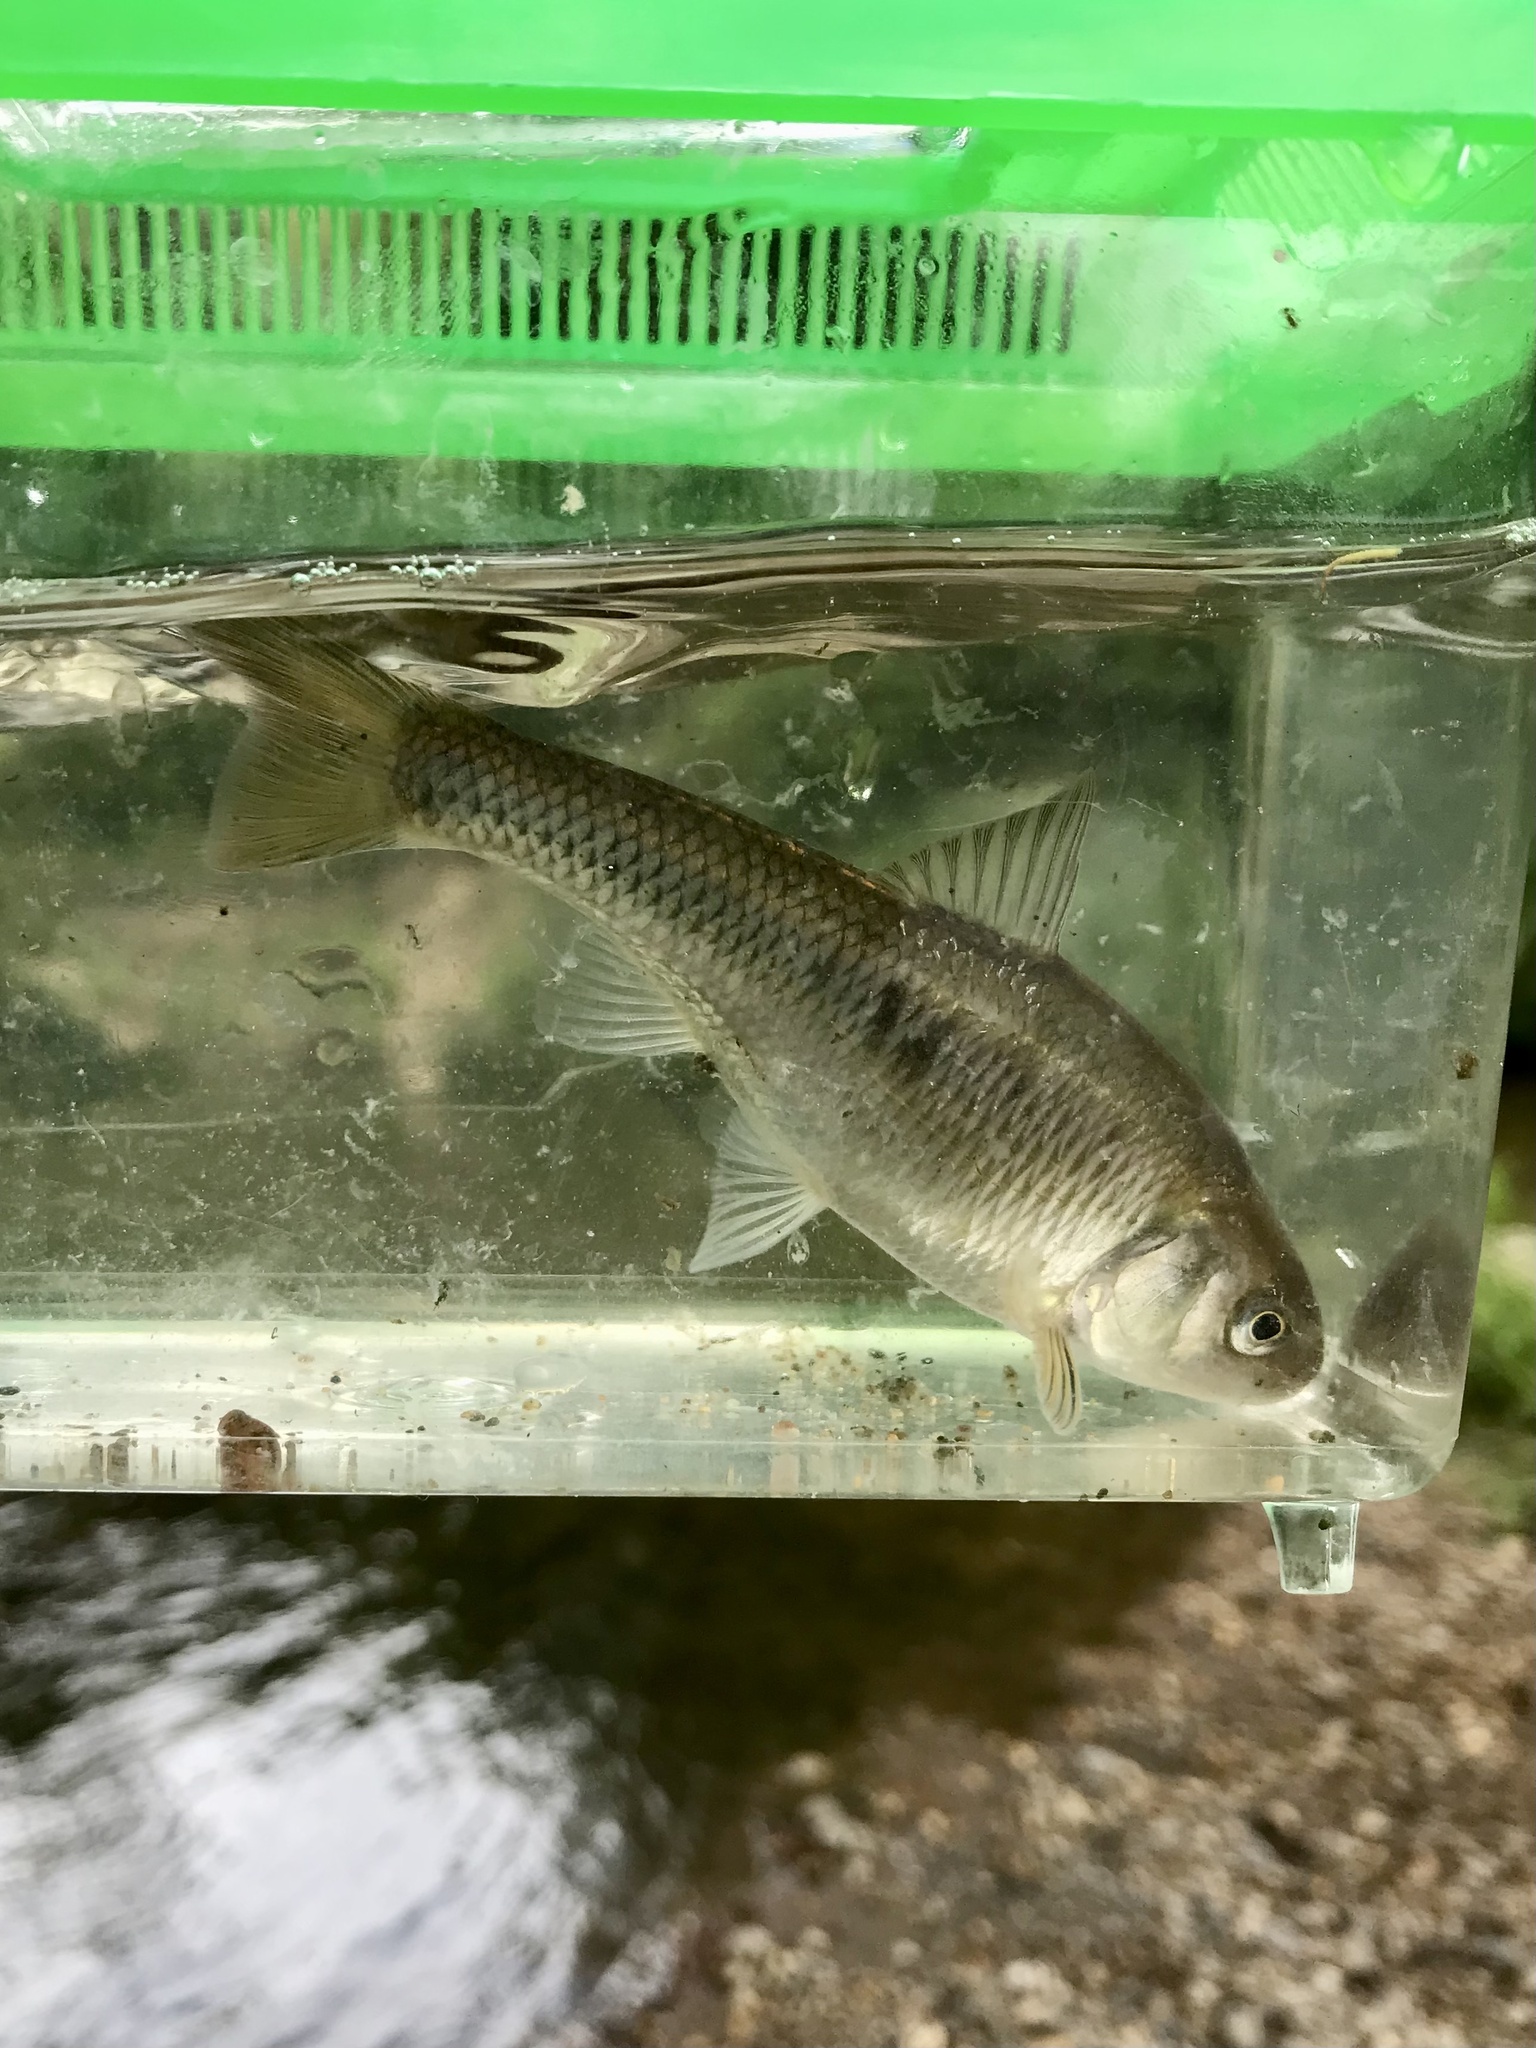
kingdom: Animalia
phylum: Chordata
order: Cypriniformes
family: Cyprinidae
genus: Luxilus
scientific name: Luxilus cornutus
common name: Common shiner
